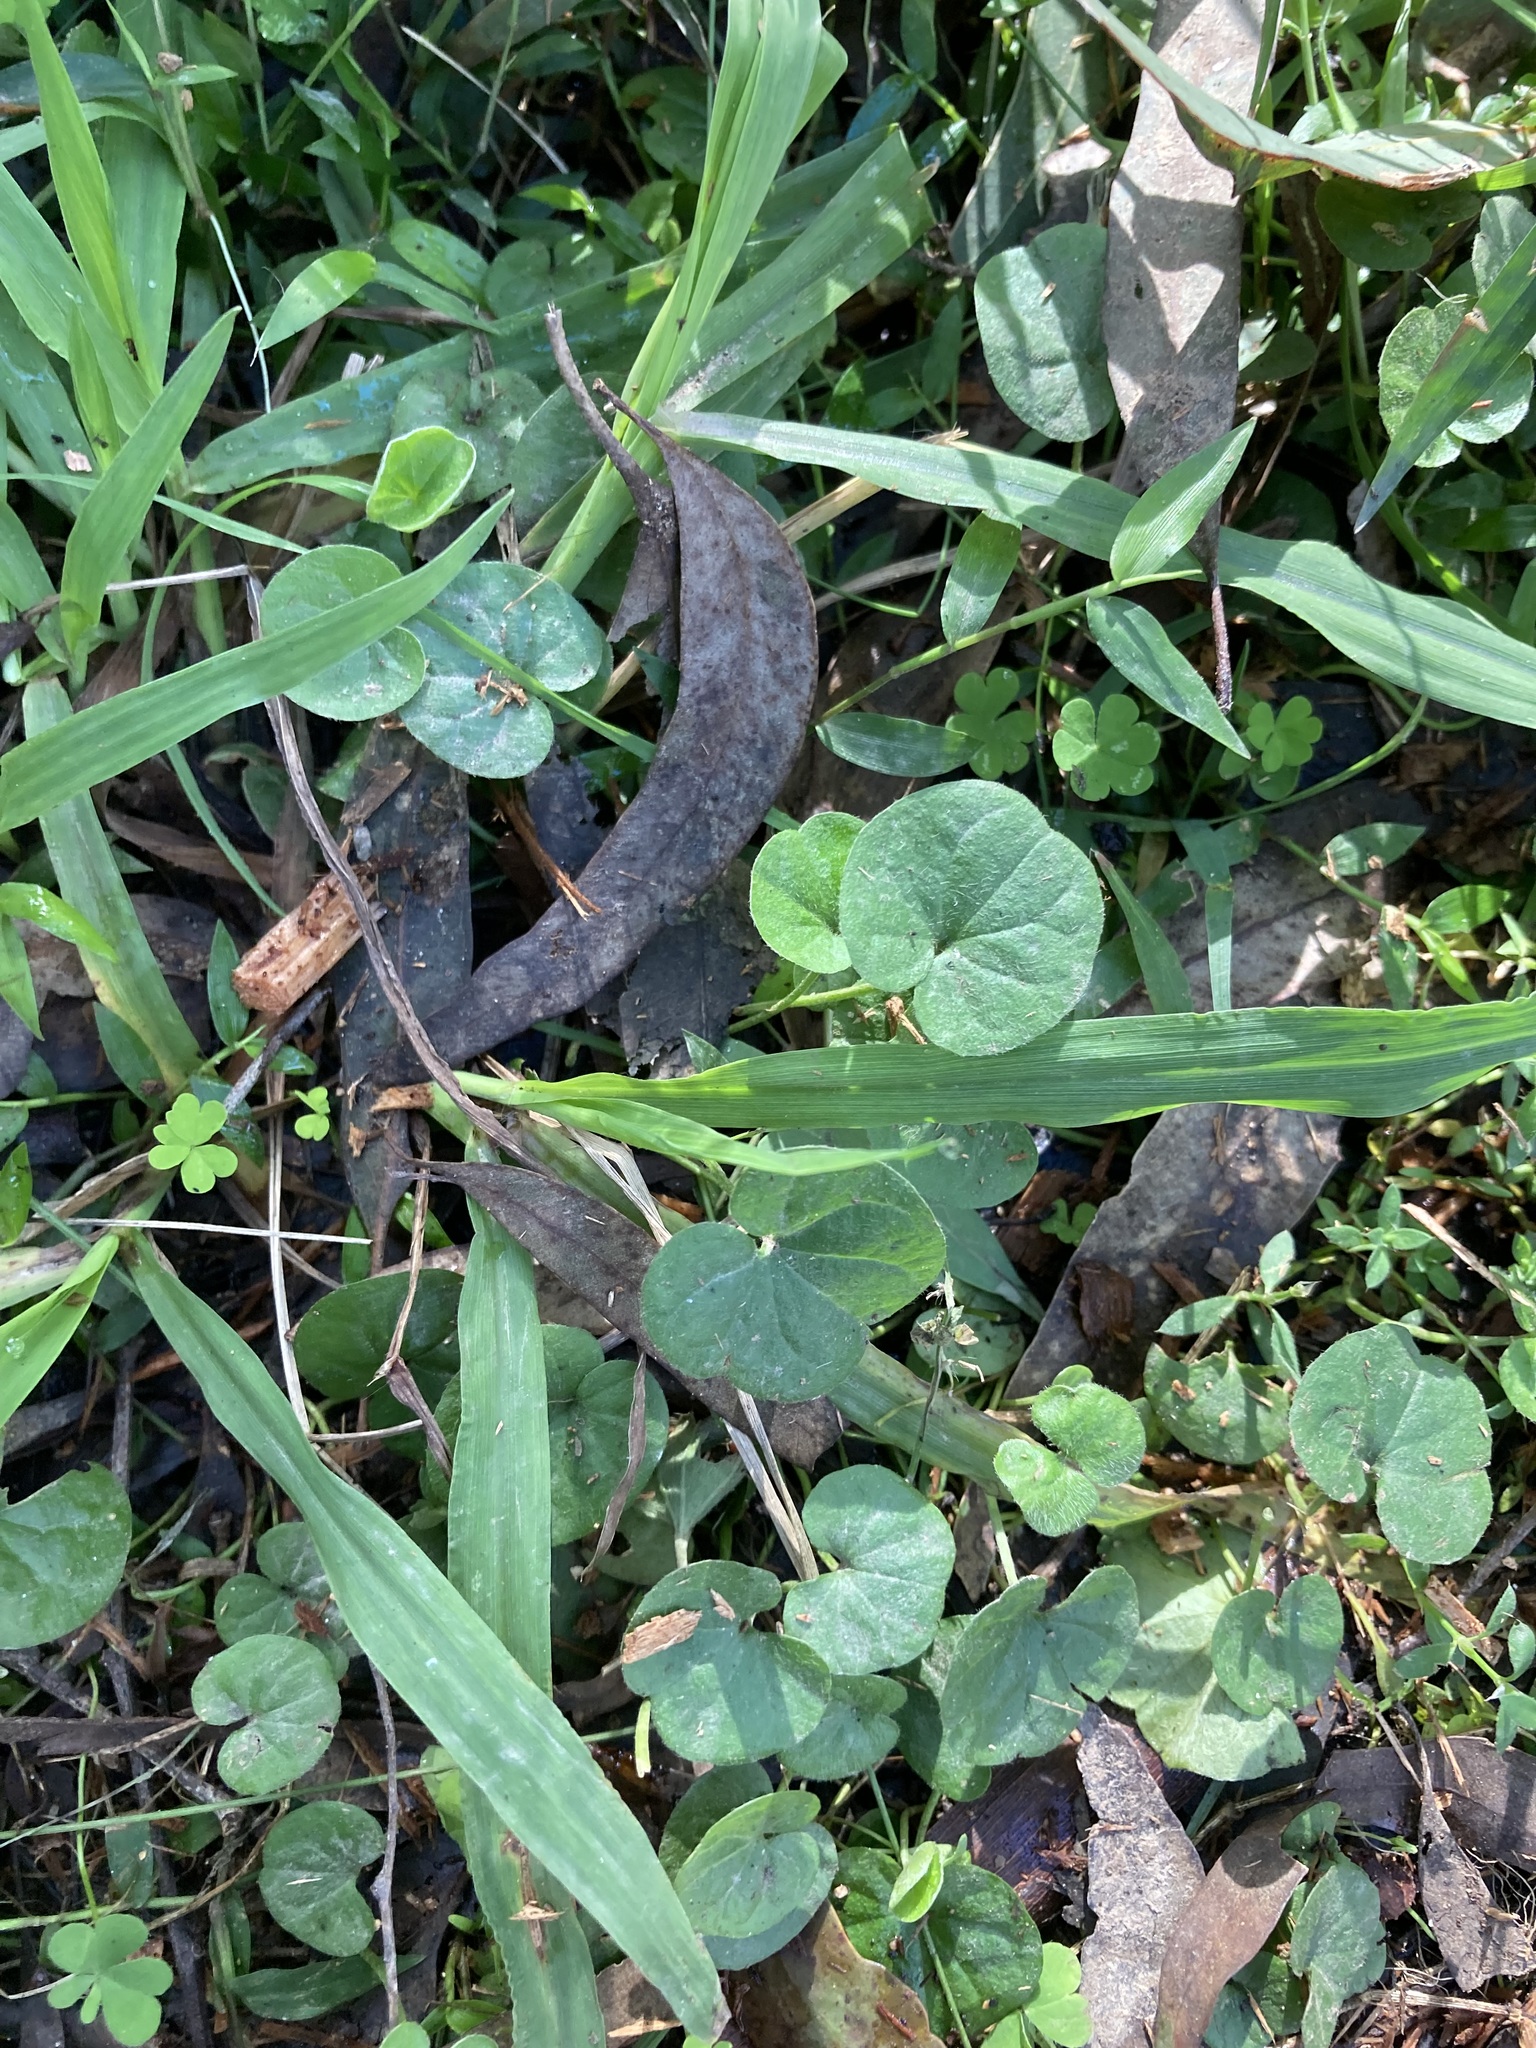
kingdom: Plantae
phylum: Tracheophyta
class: Magnoliopsida
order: Solanales
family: Convolvulaceae
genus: Dichondra
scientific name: Dichondra repens
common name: Kidneyweed
